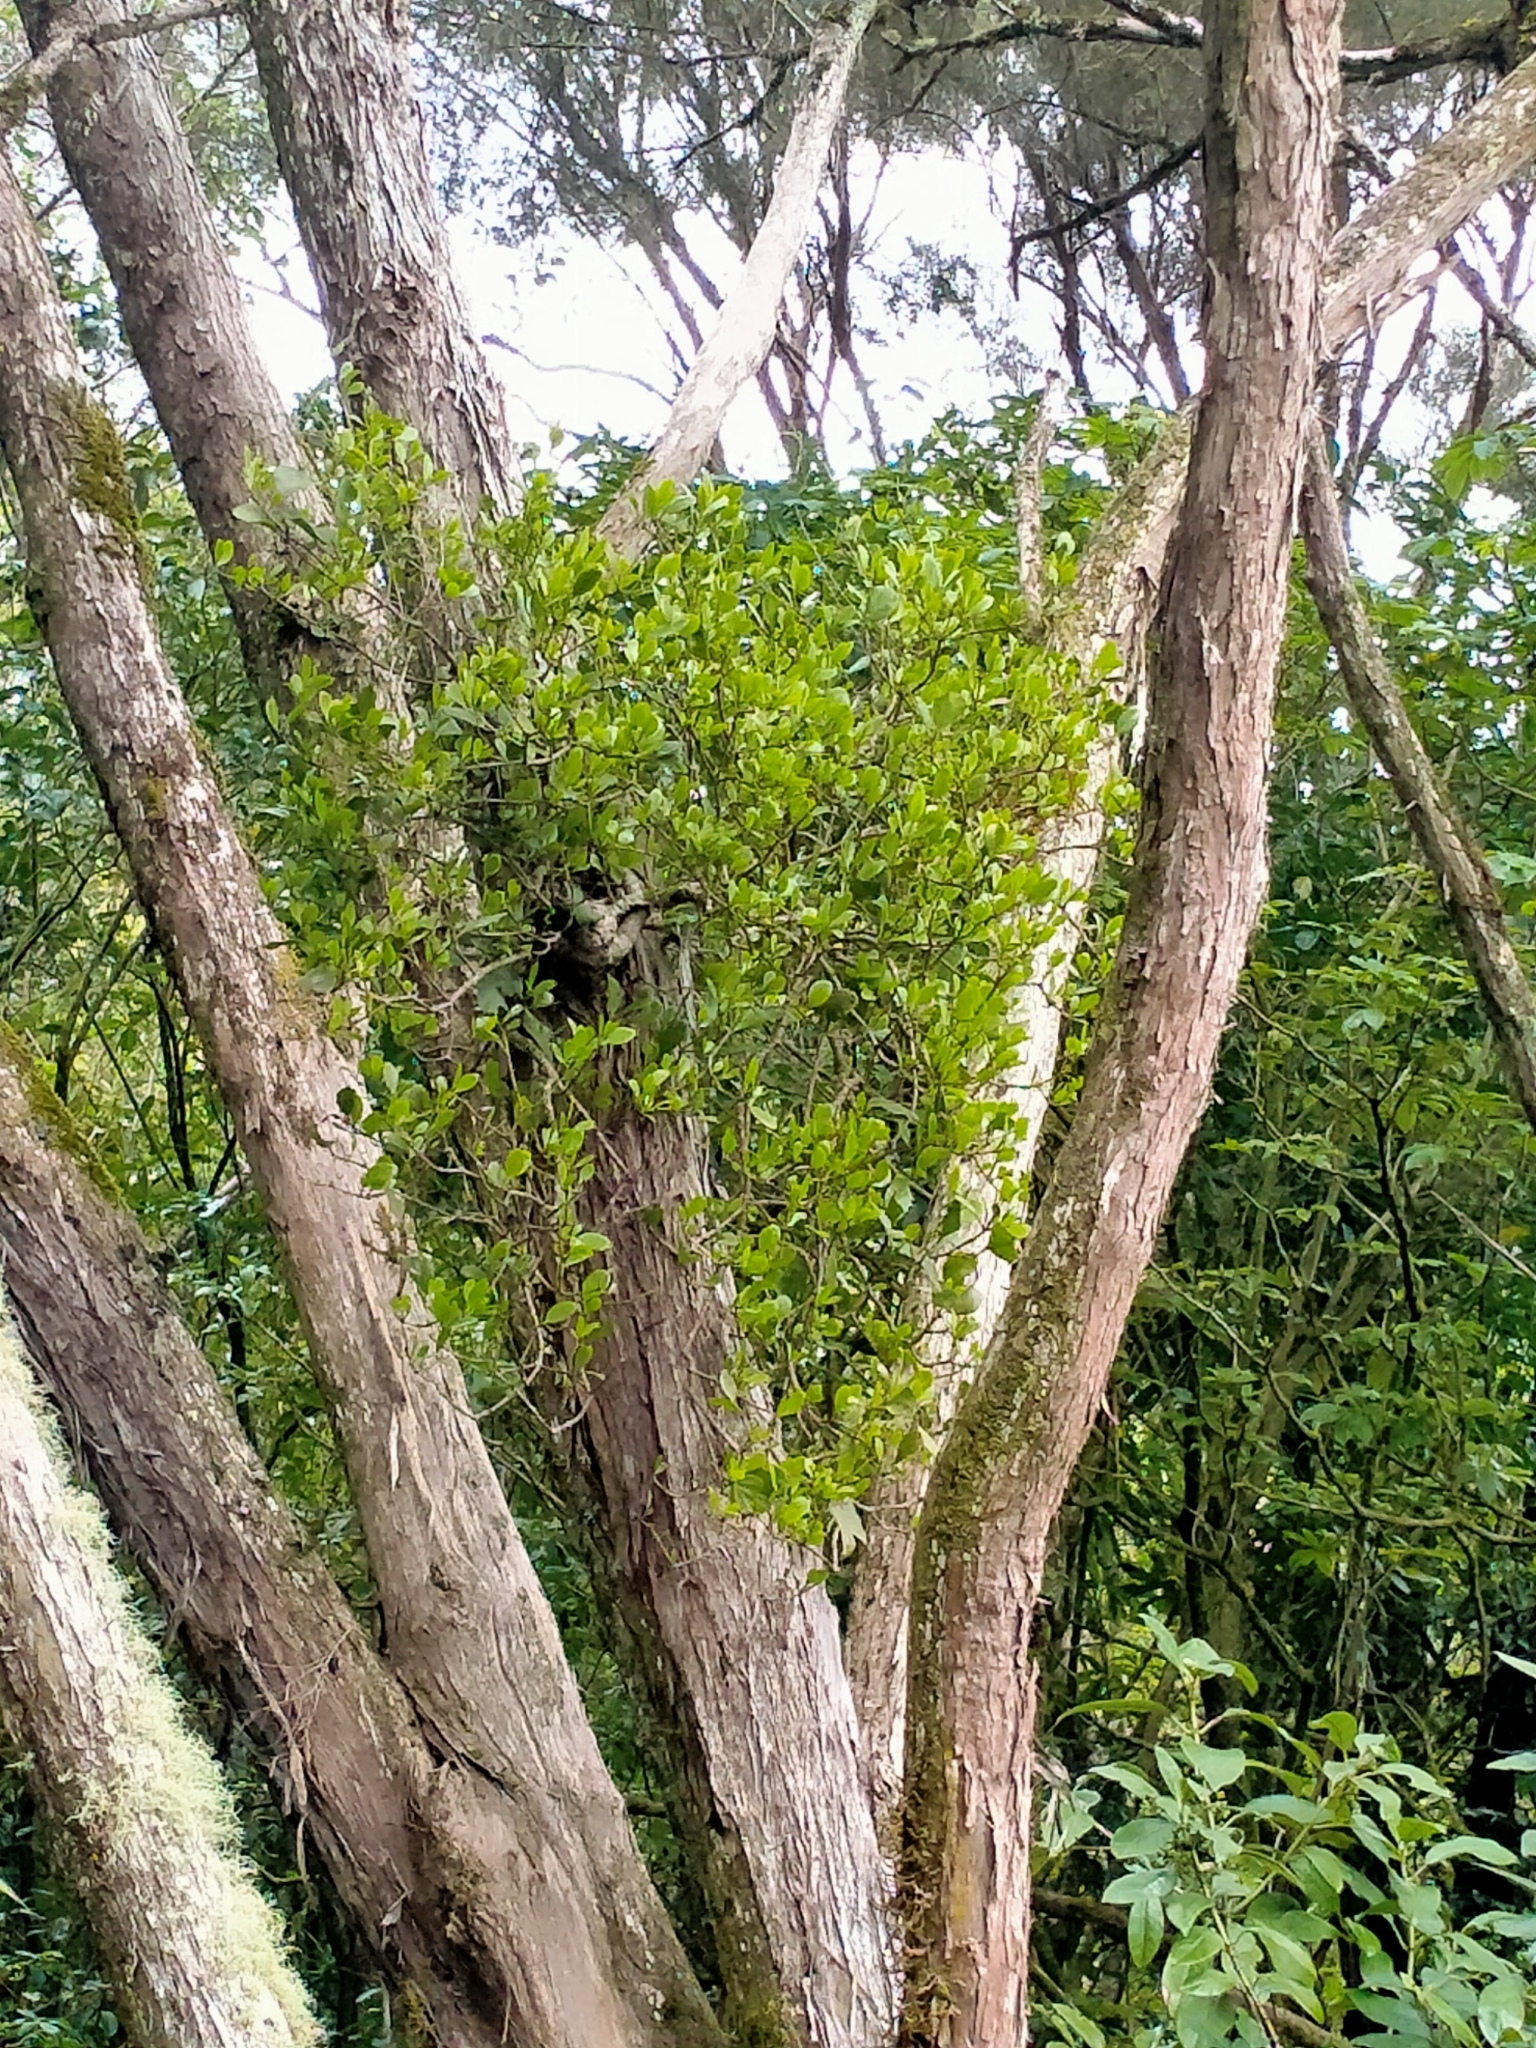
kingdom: Plantae
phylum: Tracheophyta
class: Magnoliopsida
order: Santalales
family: Loranthaceae
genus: Ileostylus
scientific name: Ileostylus micranthus
